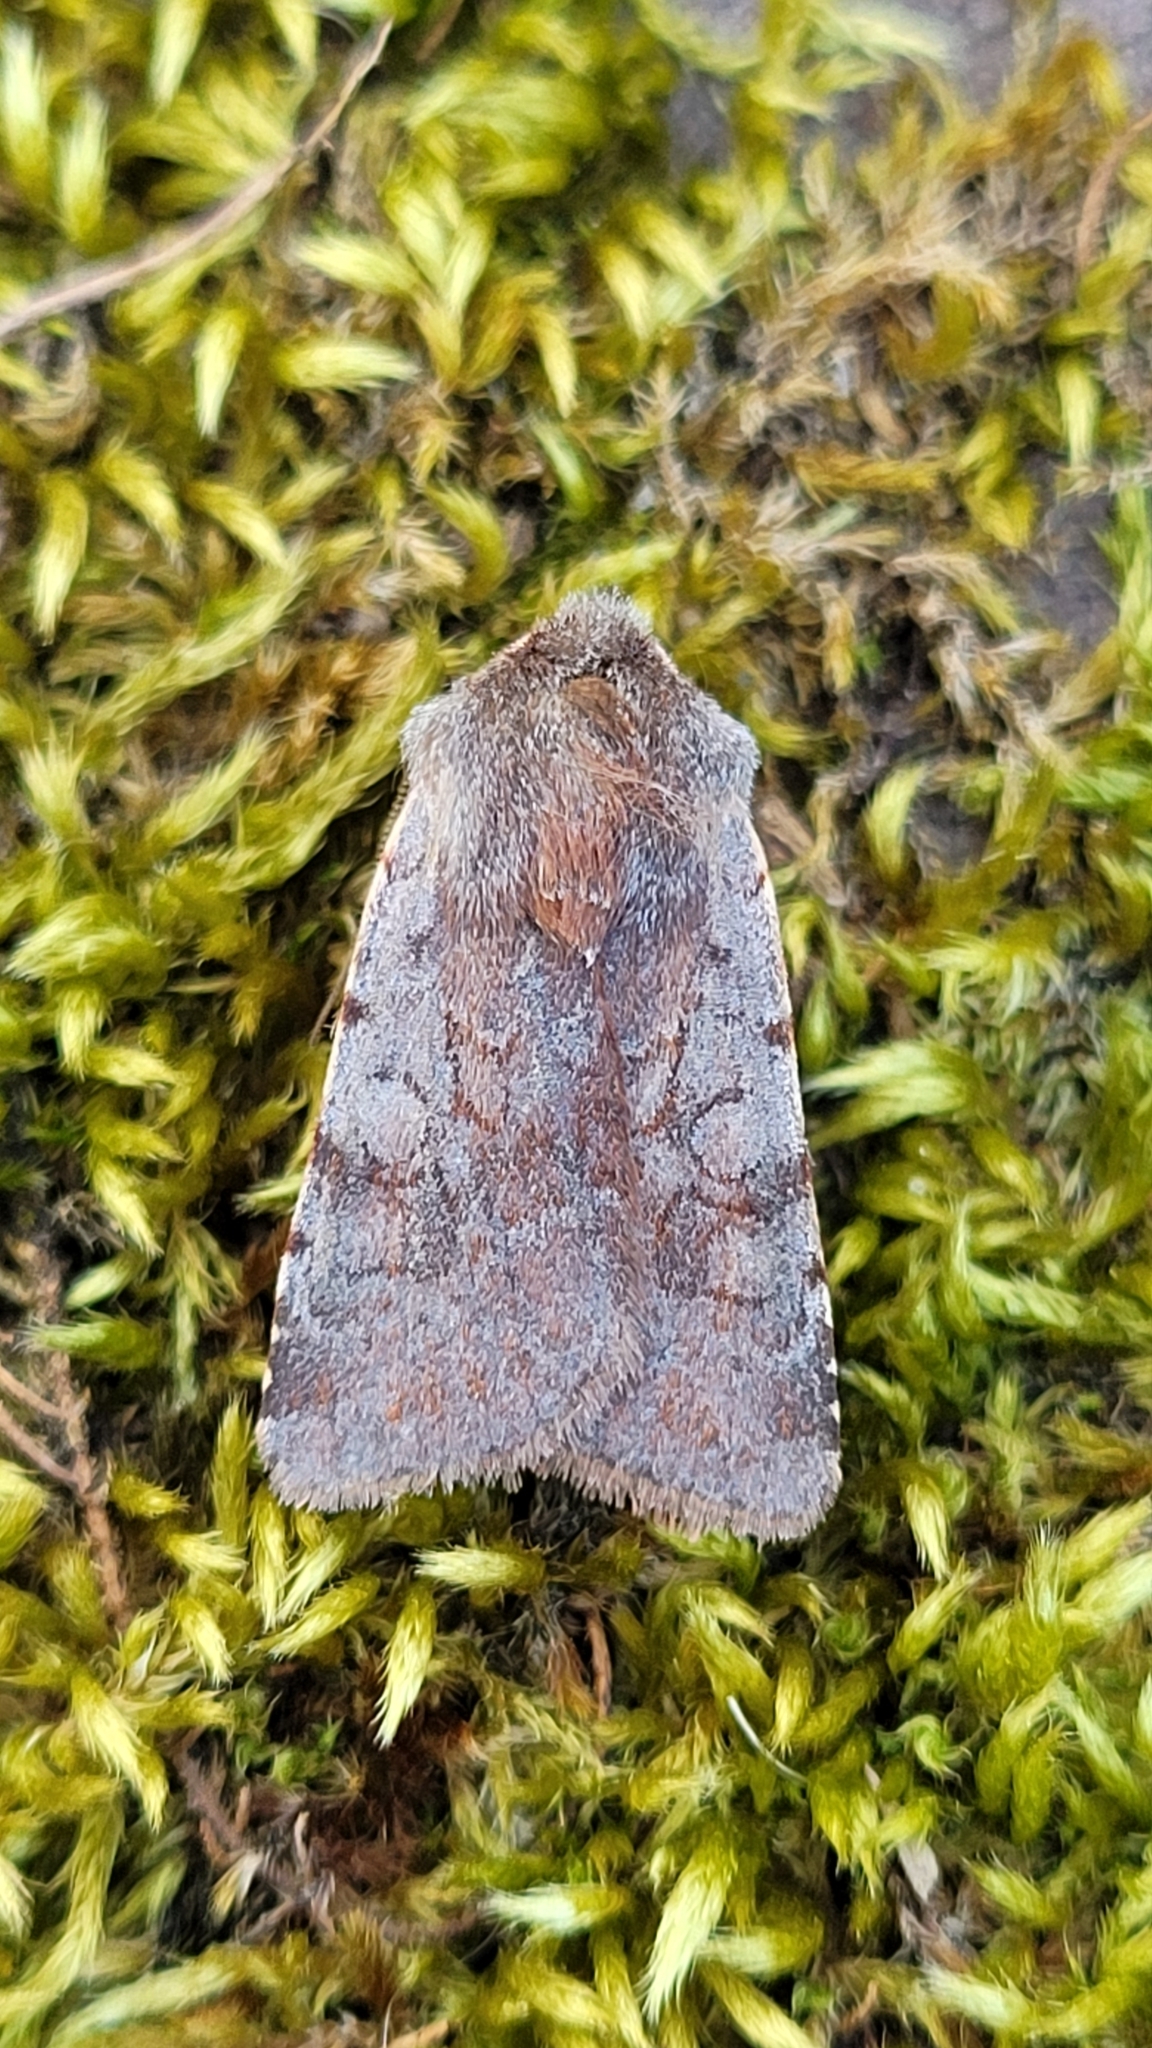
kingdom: Animalia
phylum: Arthropoda
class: Insecta
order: Lepidoptera
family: Noctuidae
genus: Cerastis
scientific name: Cerastis rubricosa
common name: Red chestnut
